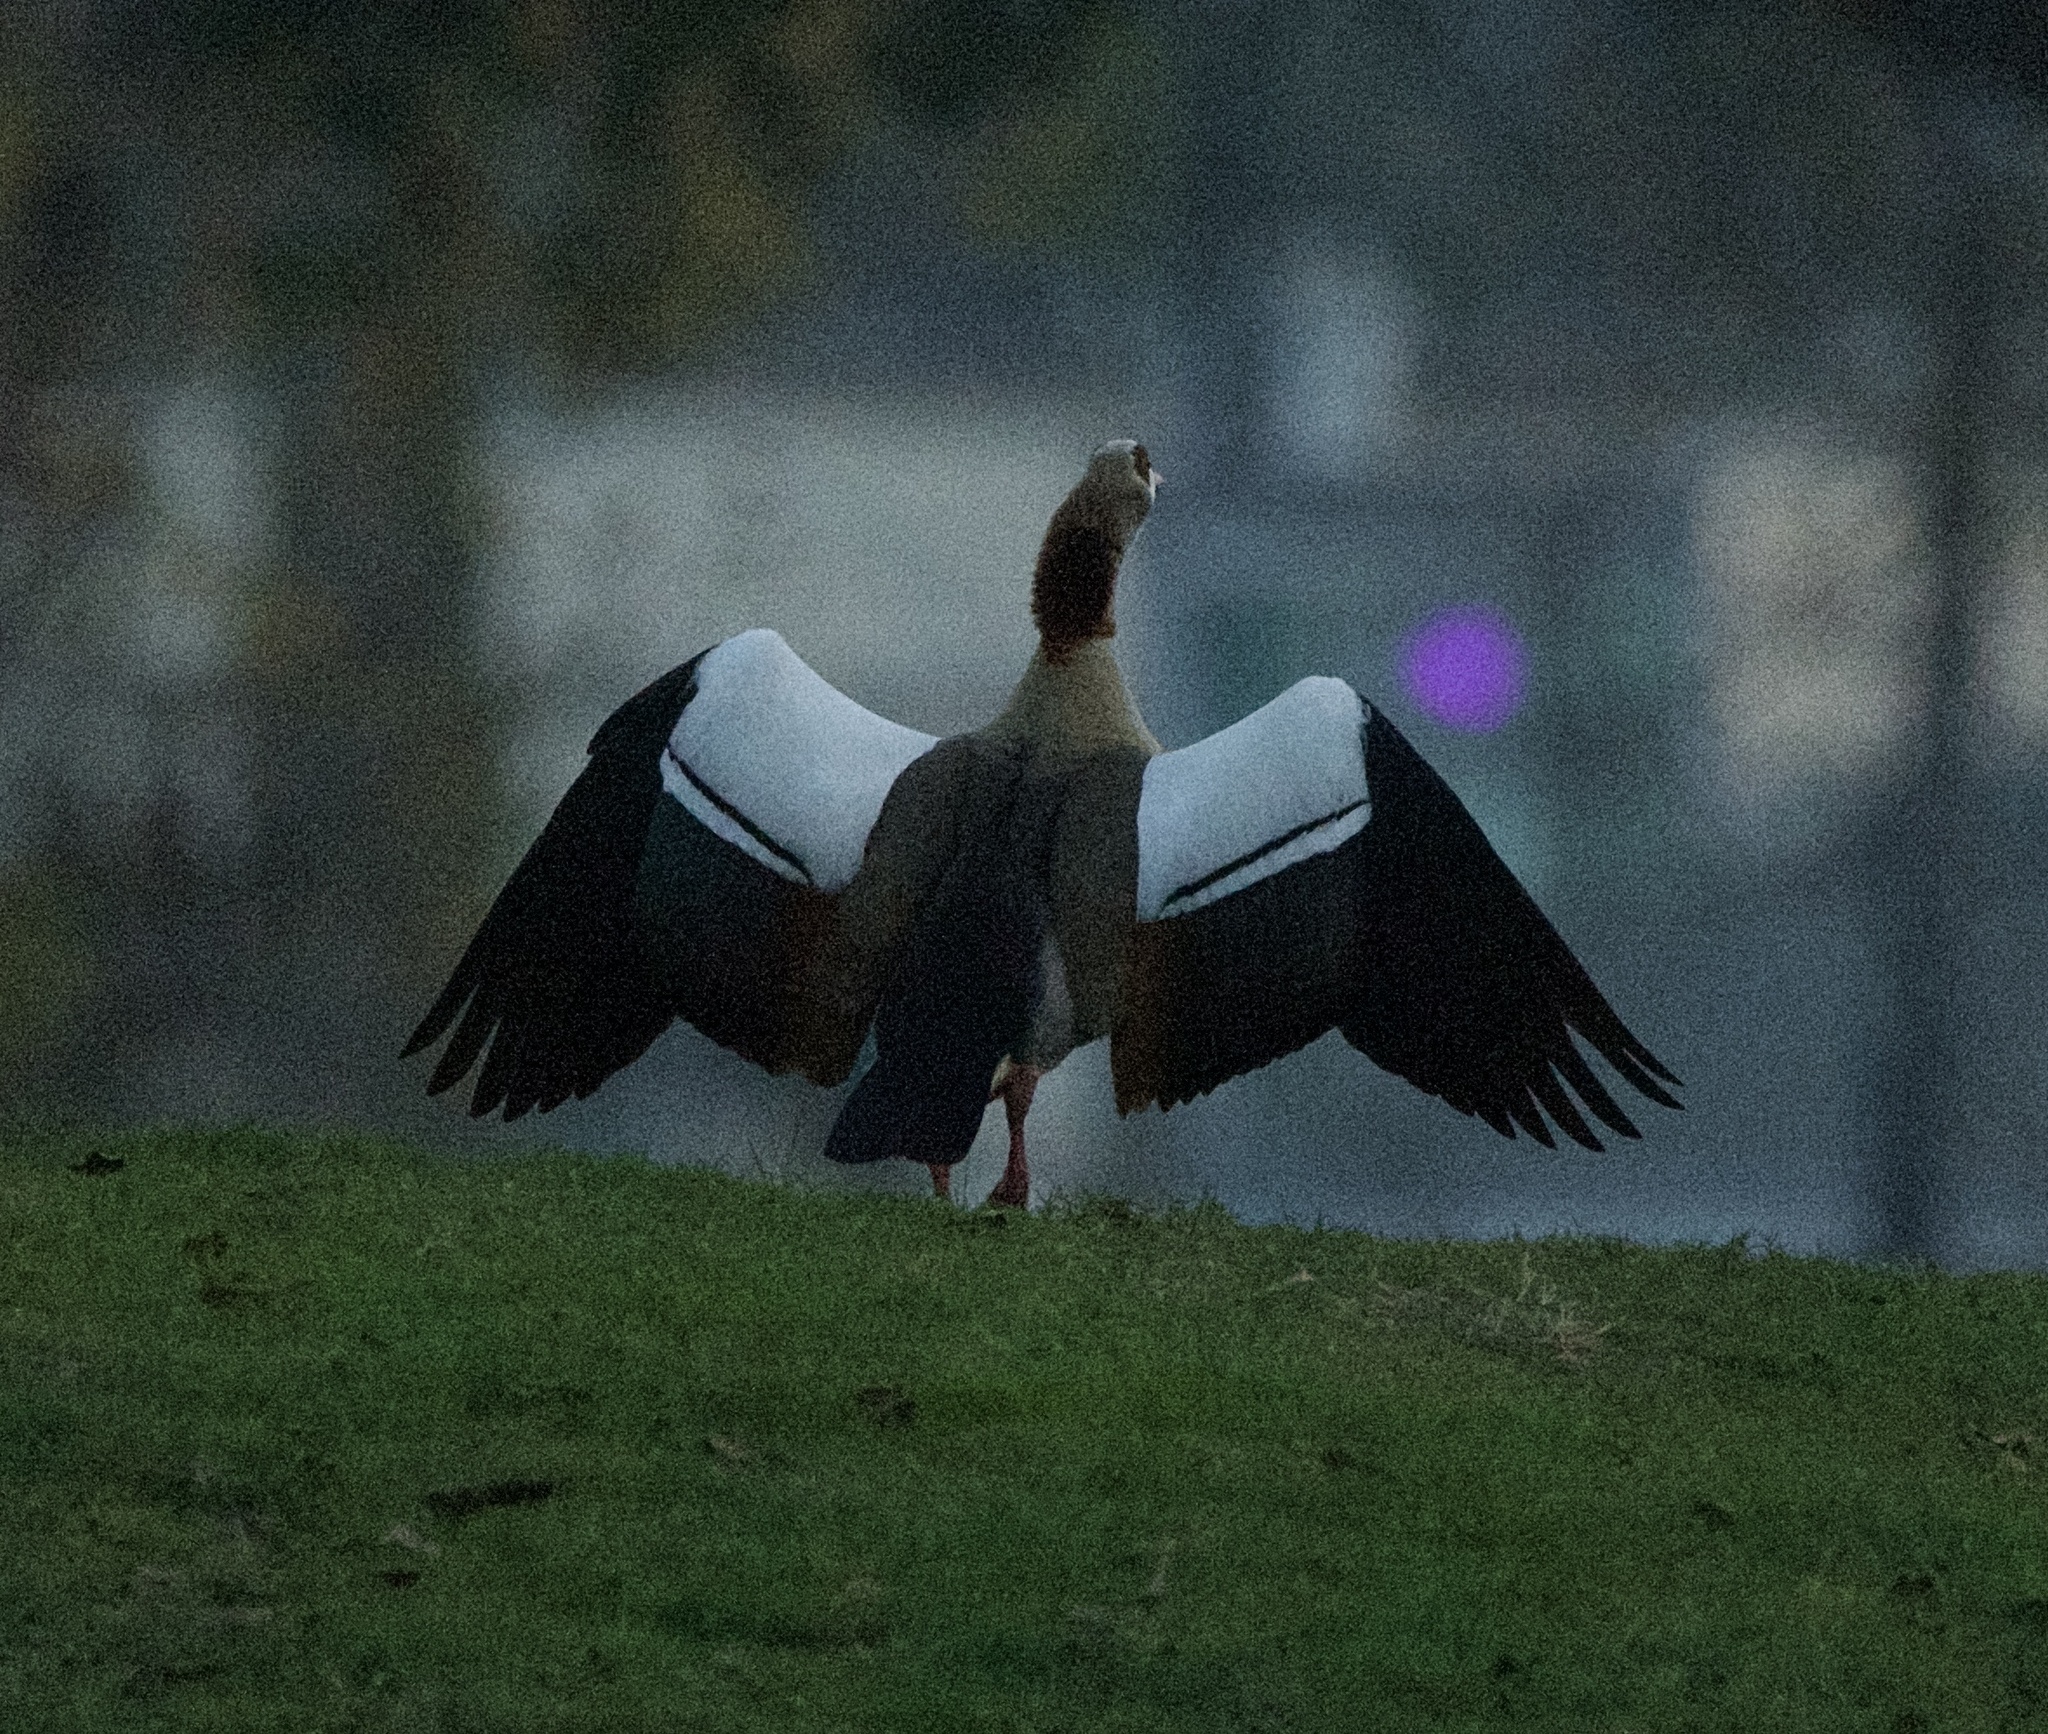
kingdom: Animalia
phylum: Chordata
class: Aves
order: Anseriformes
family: Anatidae
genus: Alopochen
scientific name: Alopochen aegyptiaca
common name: Egyptian goose
